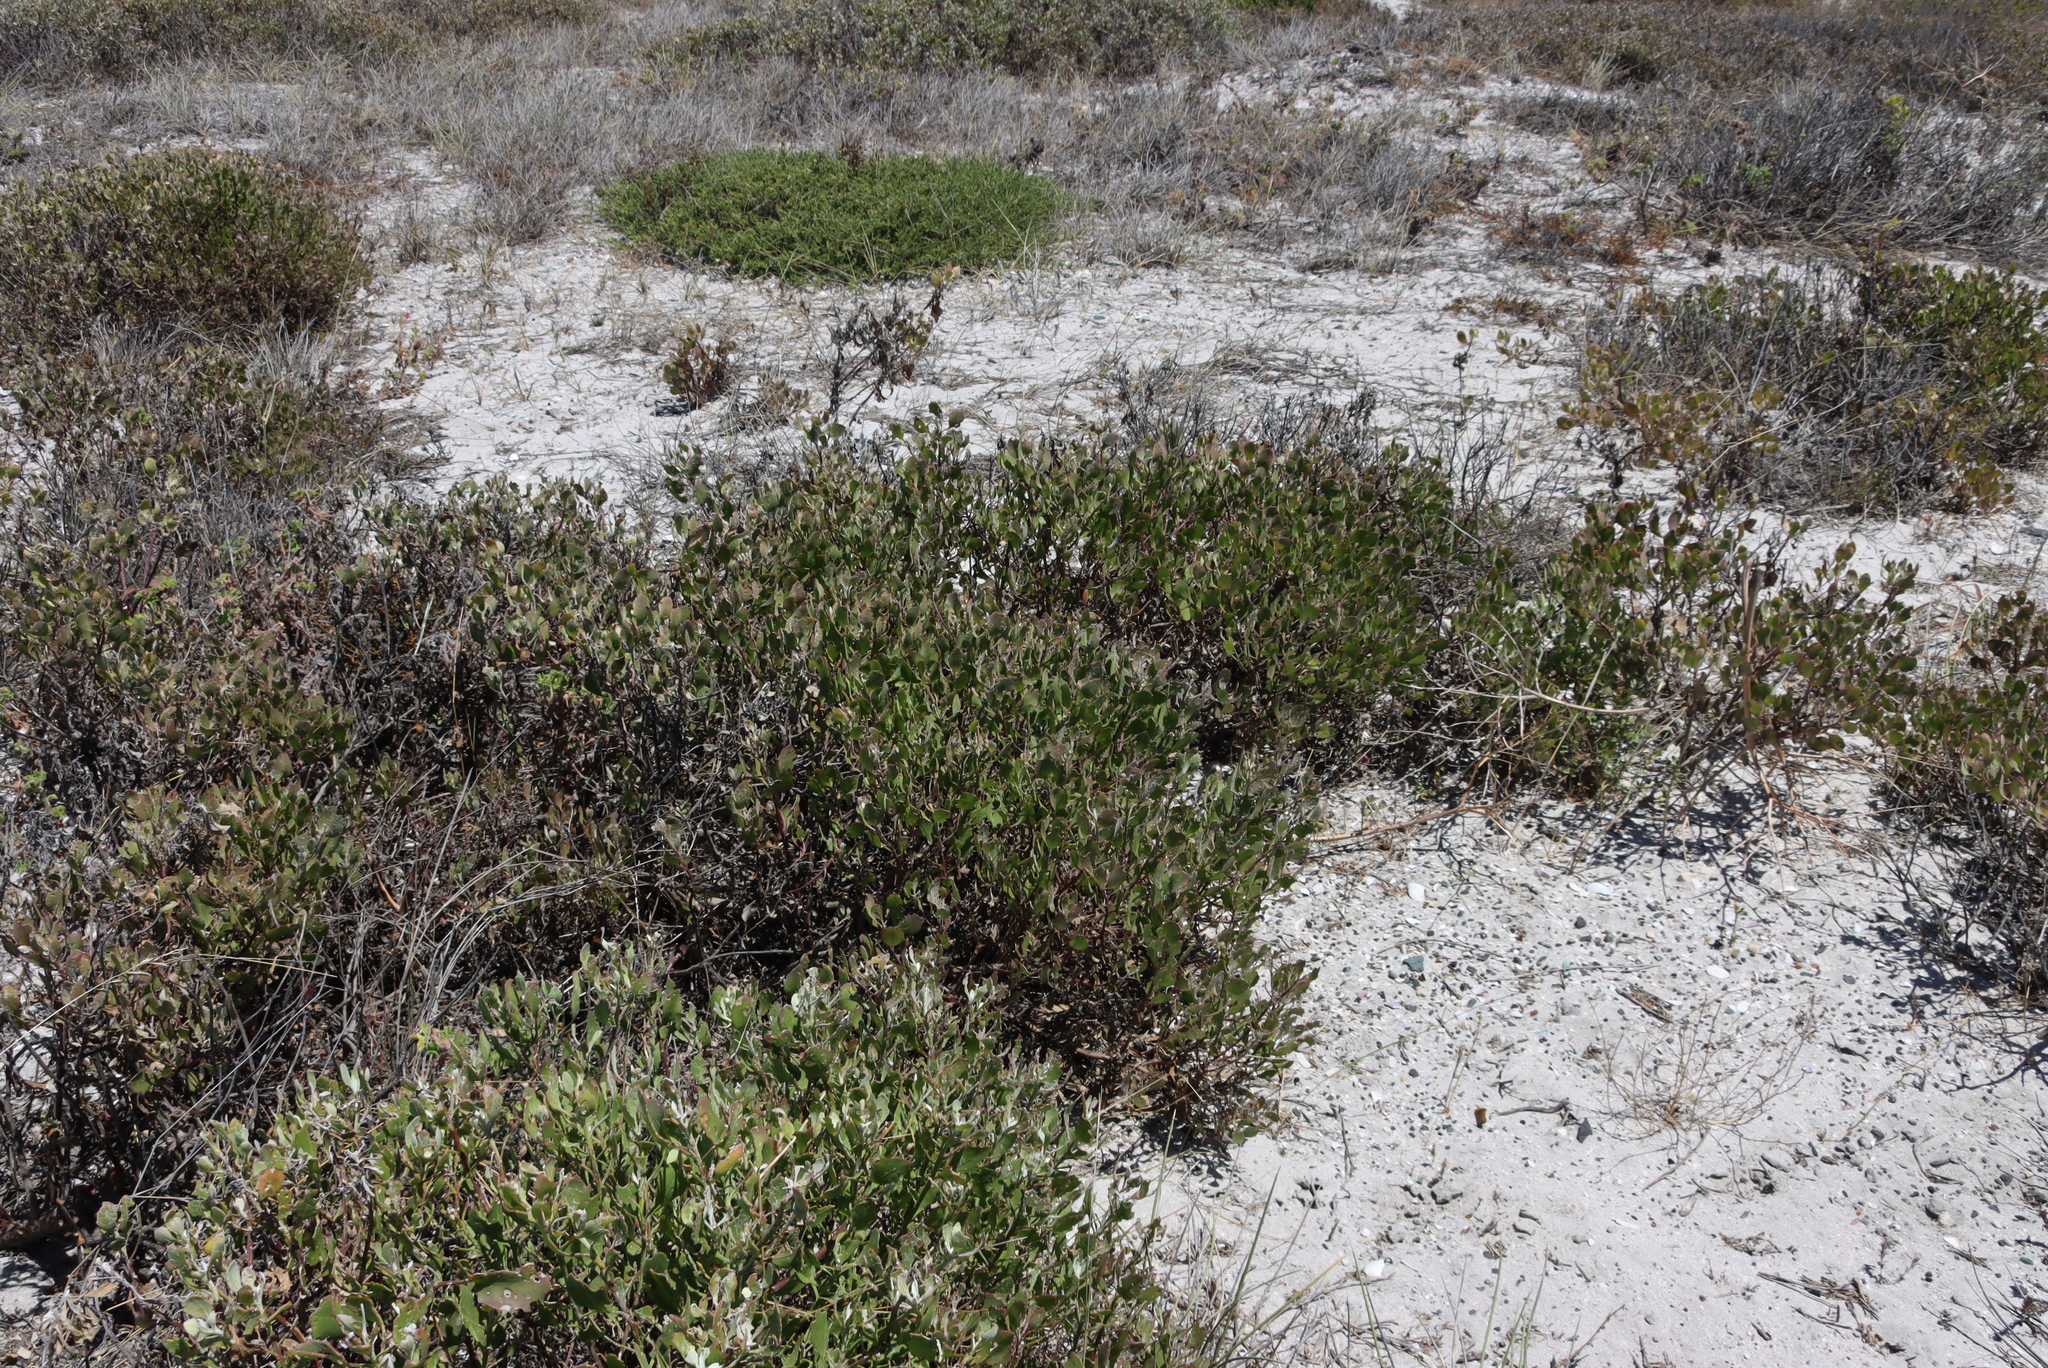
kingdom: Plantae
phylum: Tracheophyta
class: Magnoliopsida
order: Asterales
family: Asteraceae
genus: Osteospermum
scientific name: Osteospermum incanum
